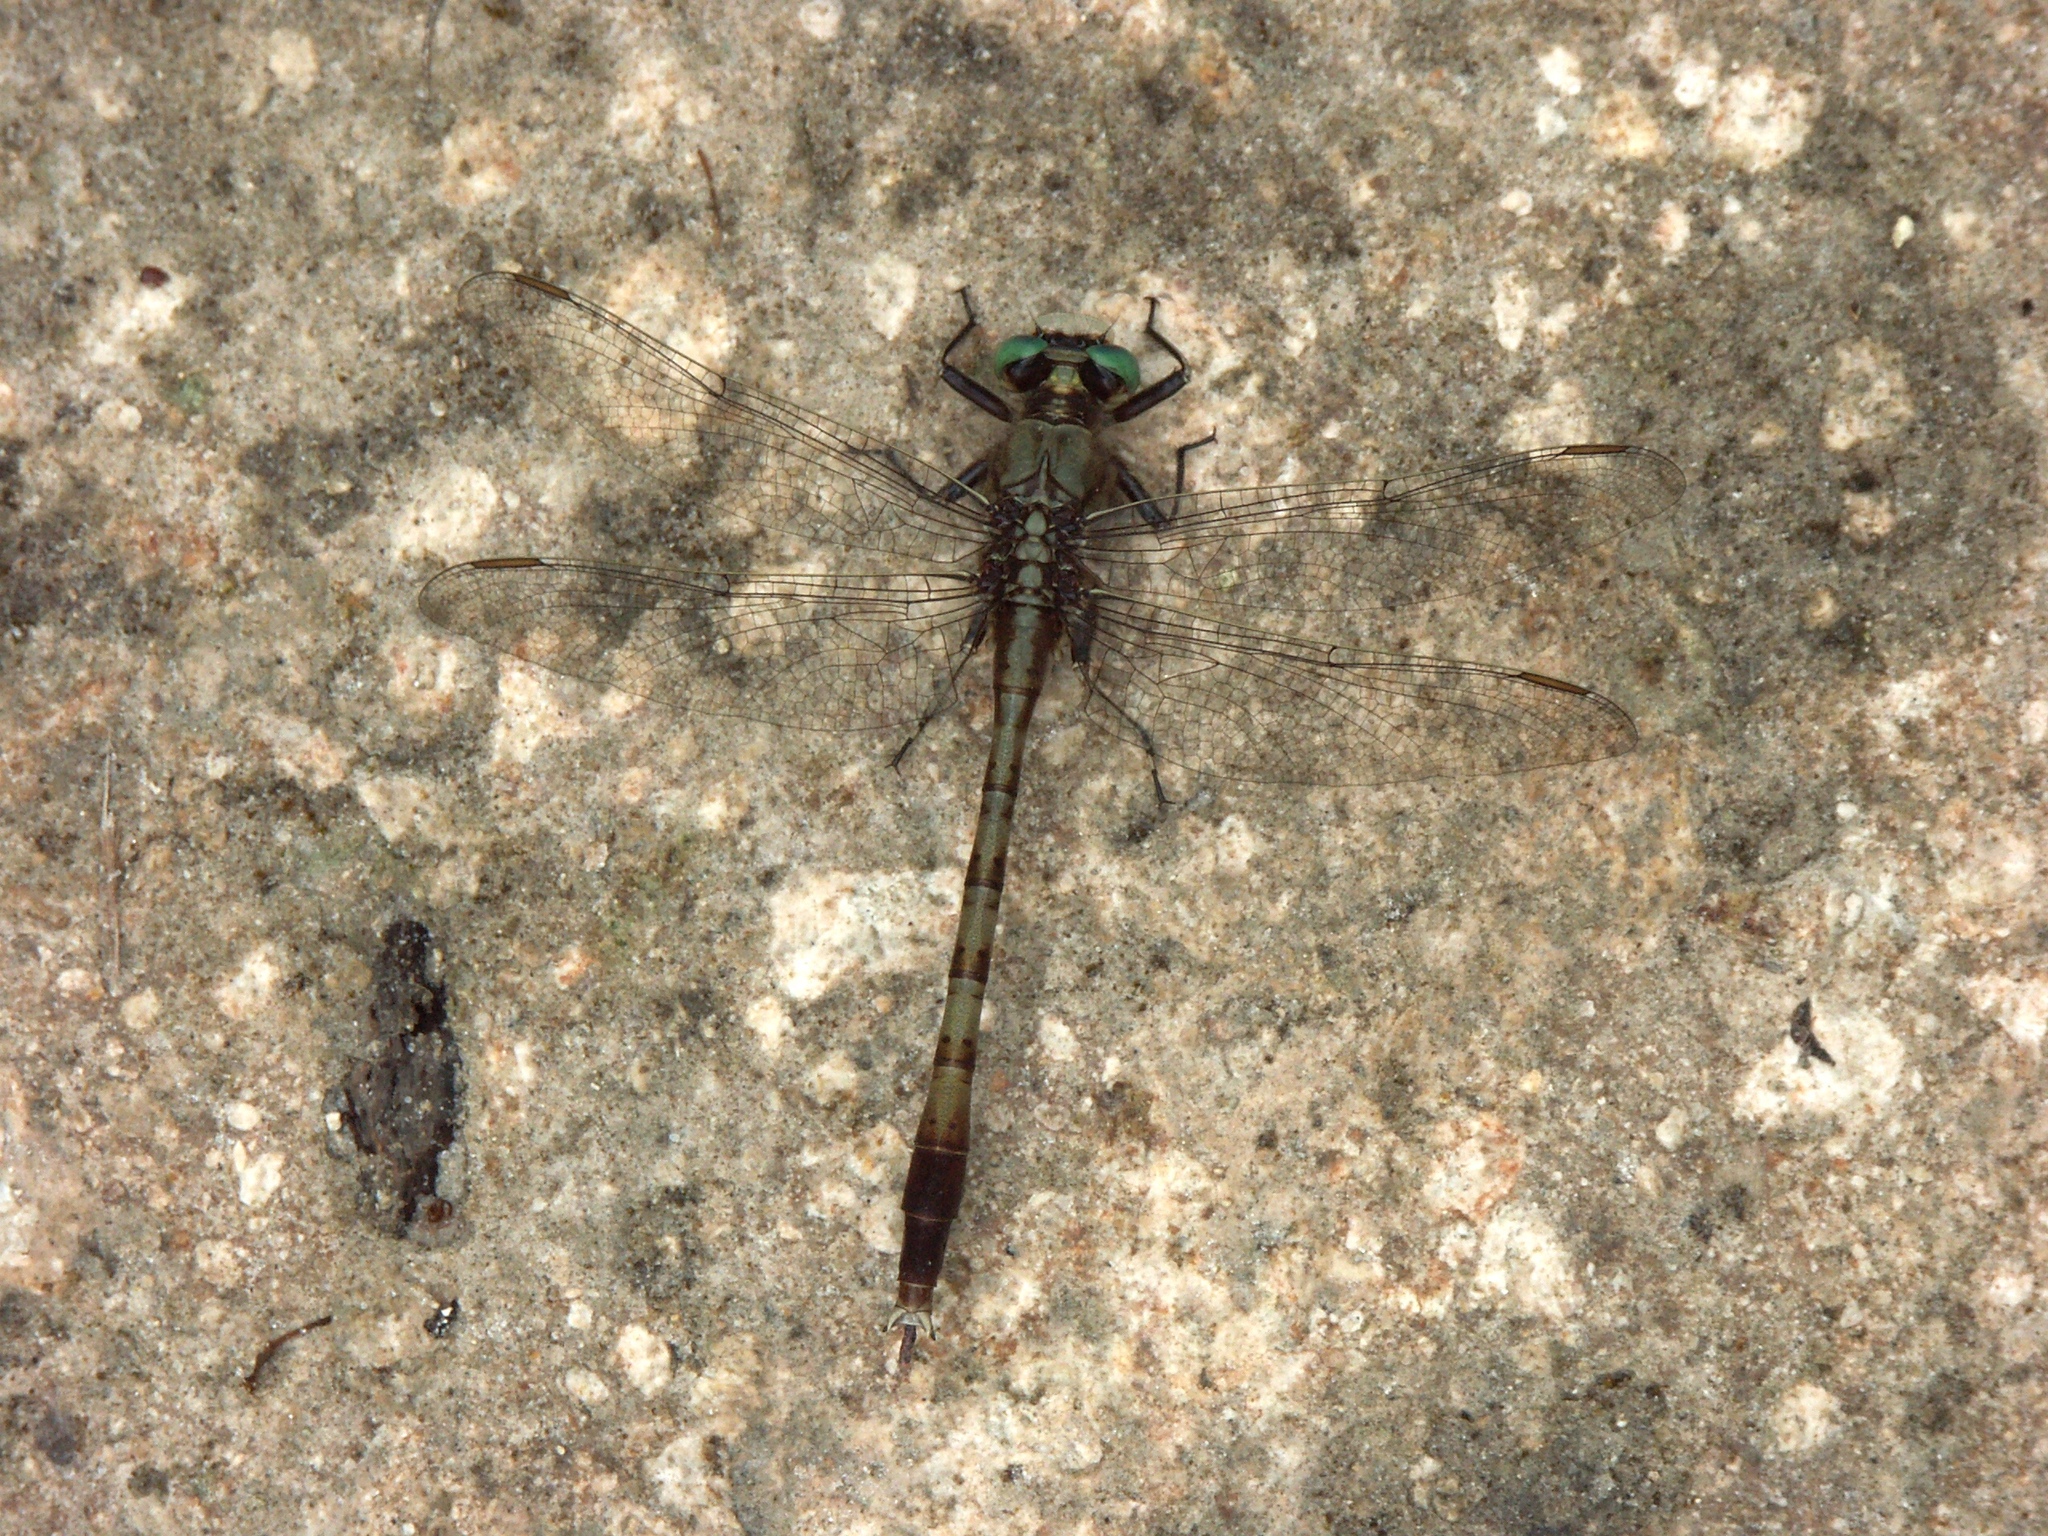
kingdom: Animalia
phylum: Arthropoda
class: Insecta
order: Odonata
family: Gomphidae
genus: Arigomphus
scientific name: Arigomphus pallidus
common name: Gray-green clubtail
